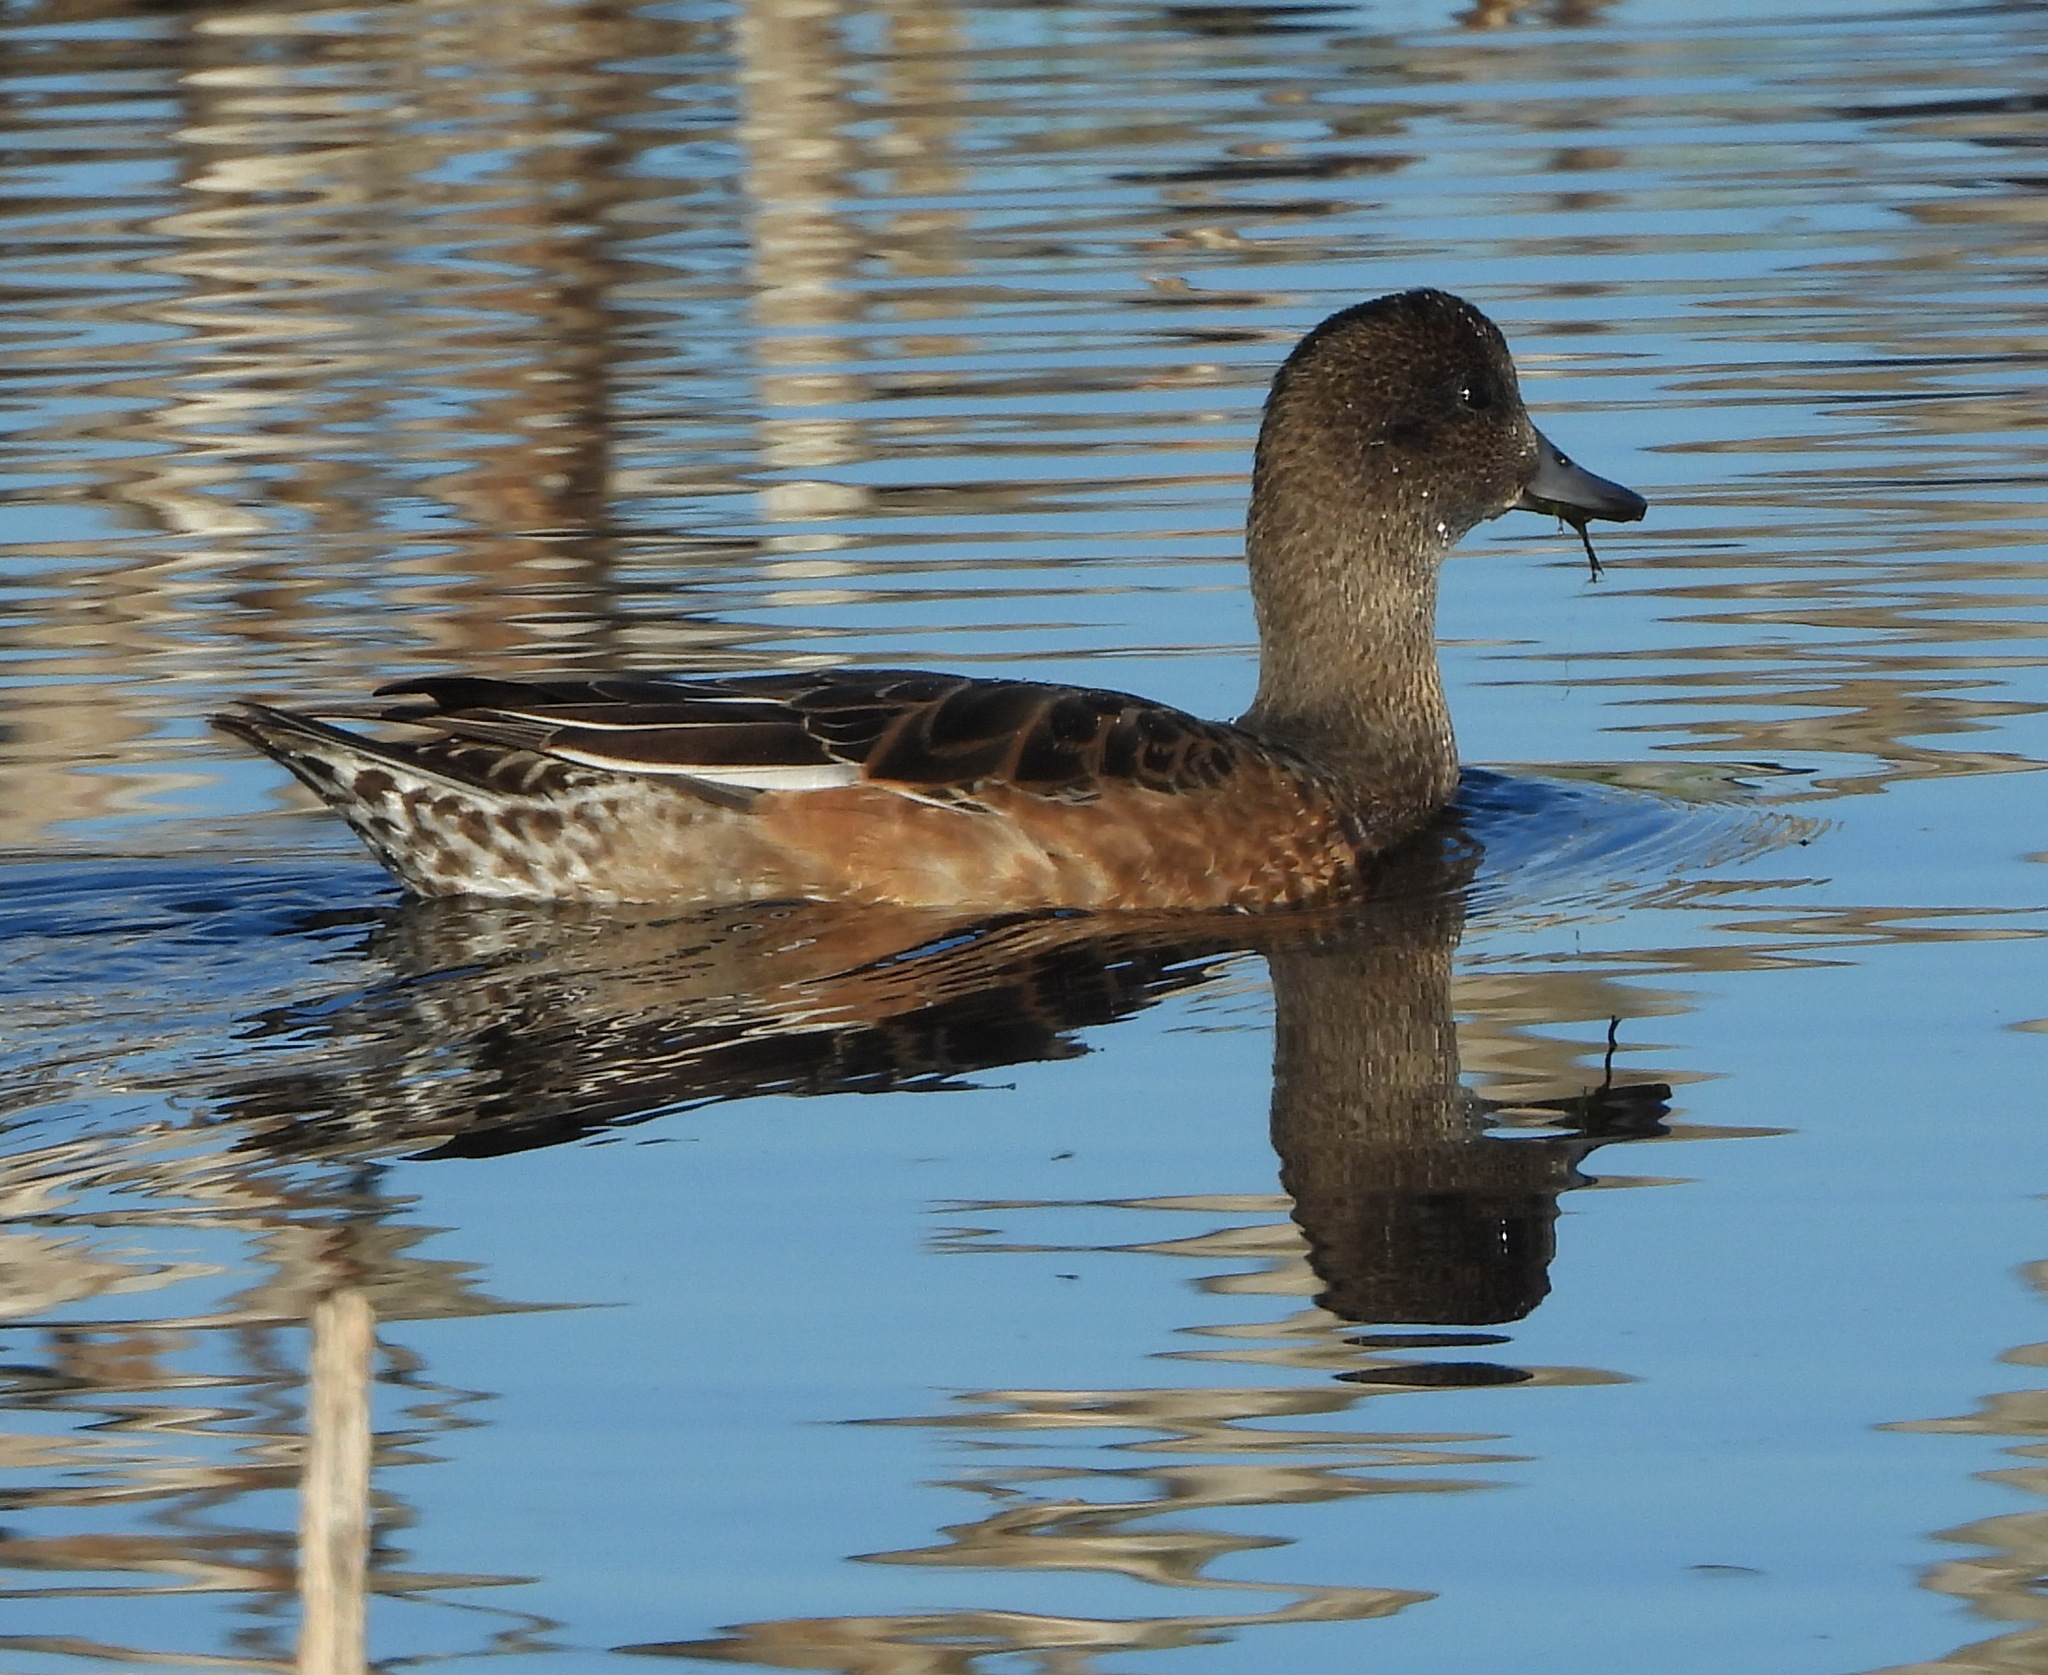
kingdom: Animalia
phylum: Chordata
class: Aves
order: Anseriformes
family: Anatidae
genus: Mareca
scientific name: Mareca penelope
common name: Eurasian wigeon
